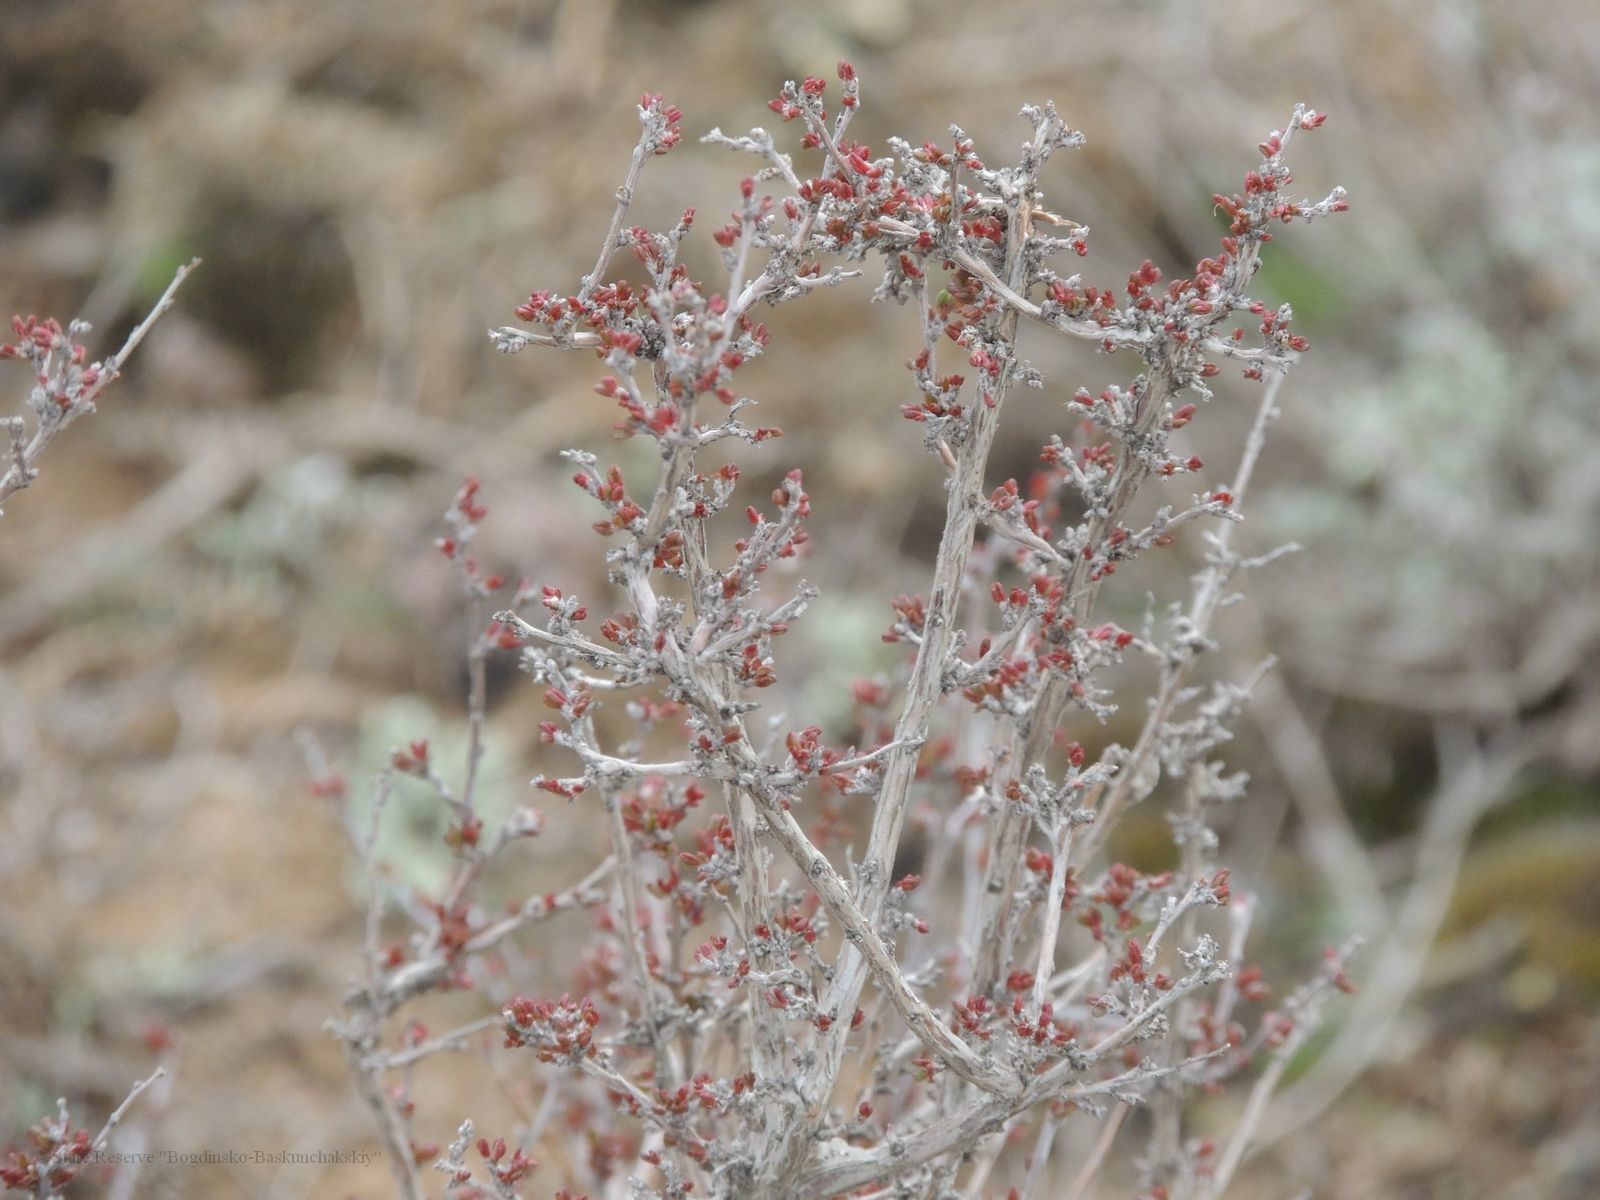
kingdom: Plantae
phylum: Tracheophyta
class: Magnoliopsida
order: Caryophyllales
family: Polygonaceae
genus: Atraphaxis
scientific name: Atraphaxis replicata
